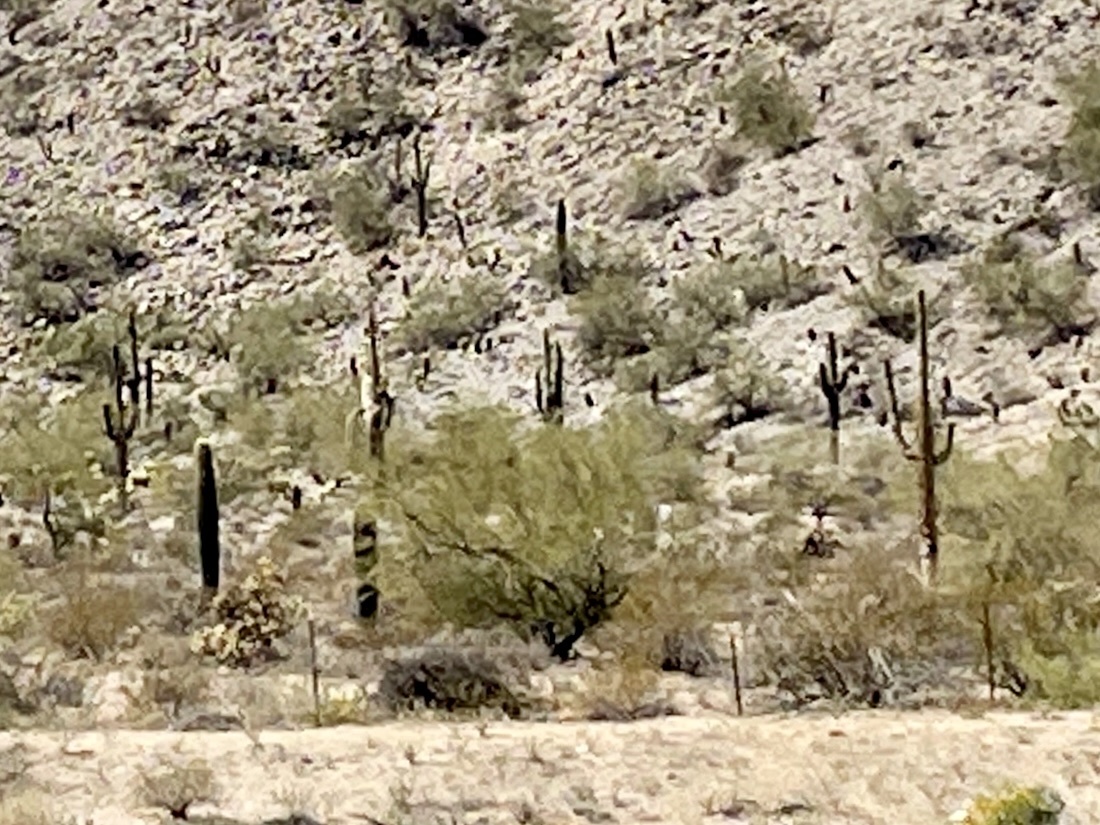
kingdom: Plantae
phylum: Tracheophyta
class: Magnoliopsida
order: Caryophyllales
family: Cactaceae
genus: Carnegiea
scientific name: Carnegiea gigantea
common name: Saguaro
